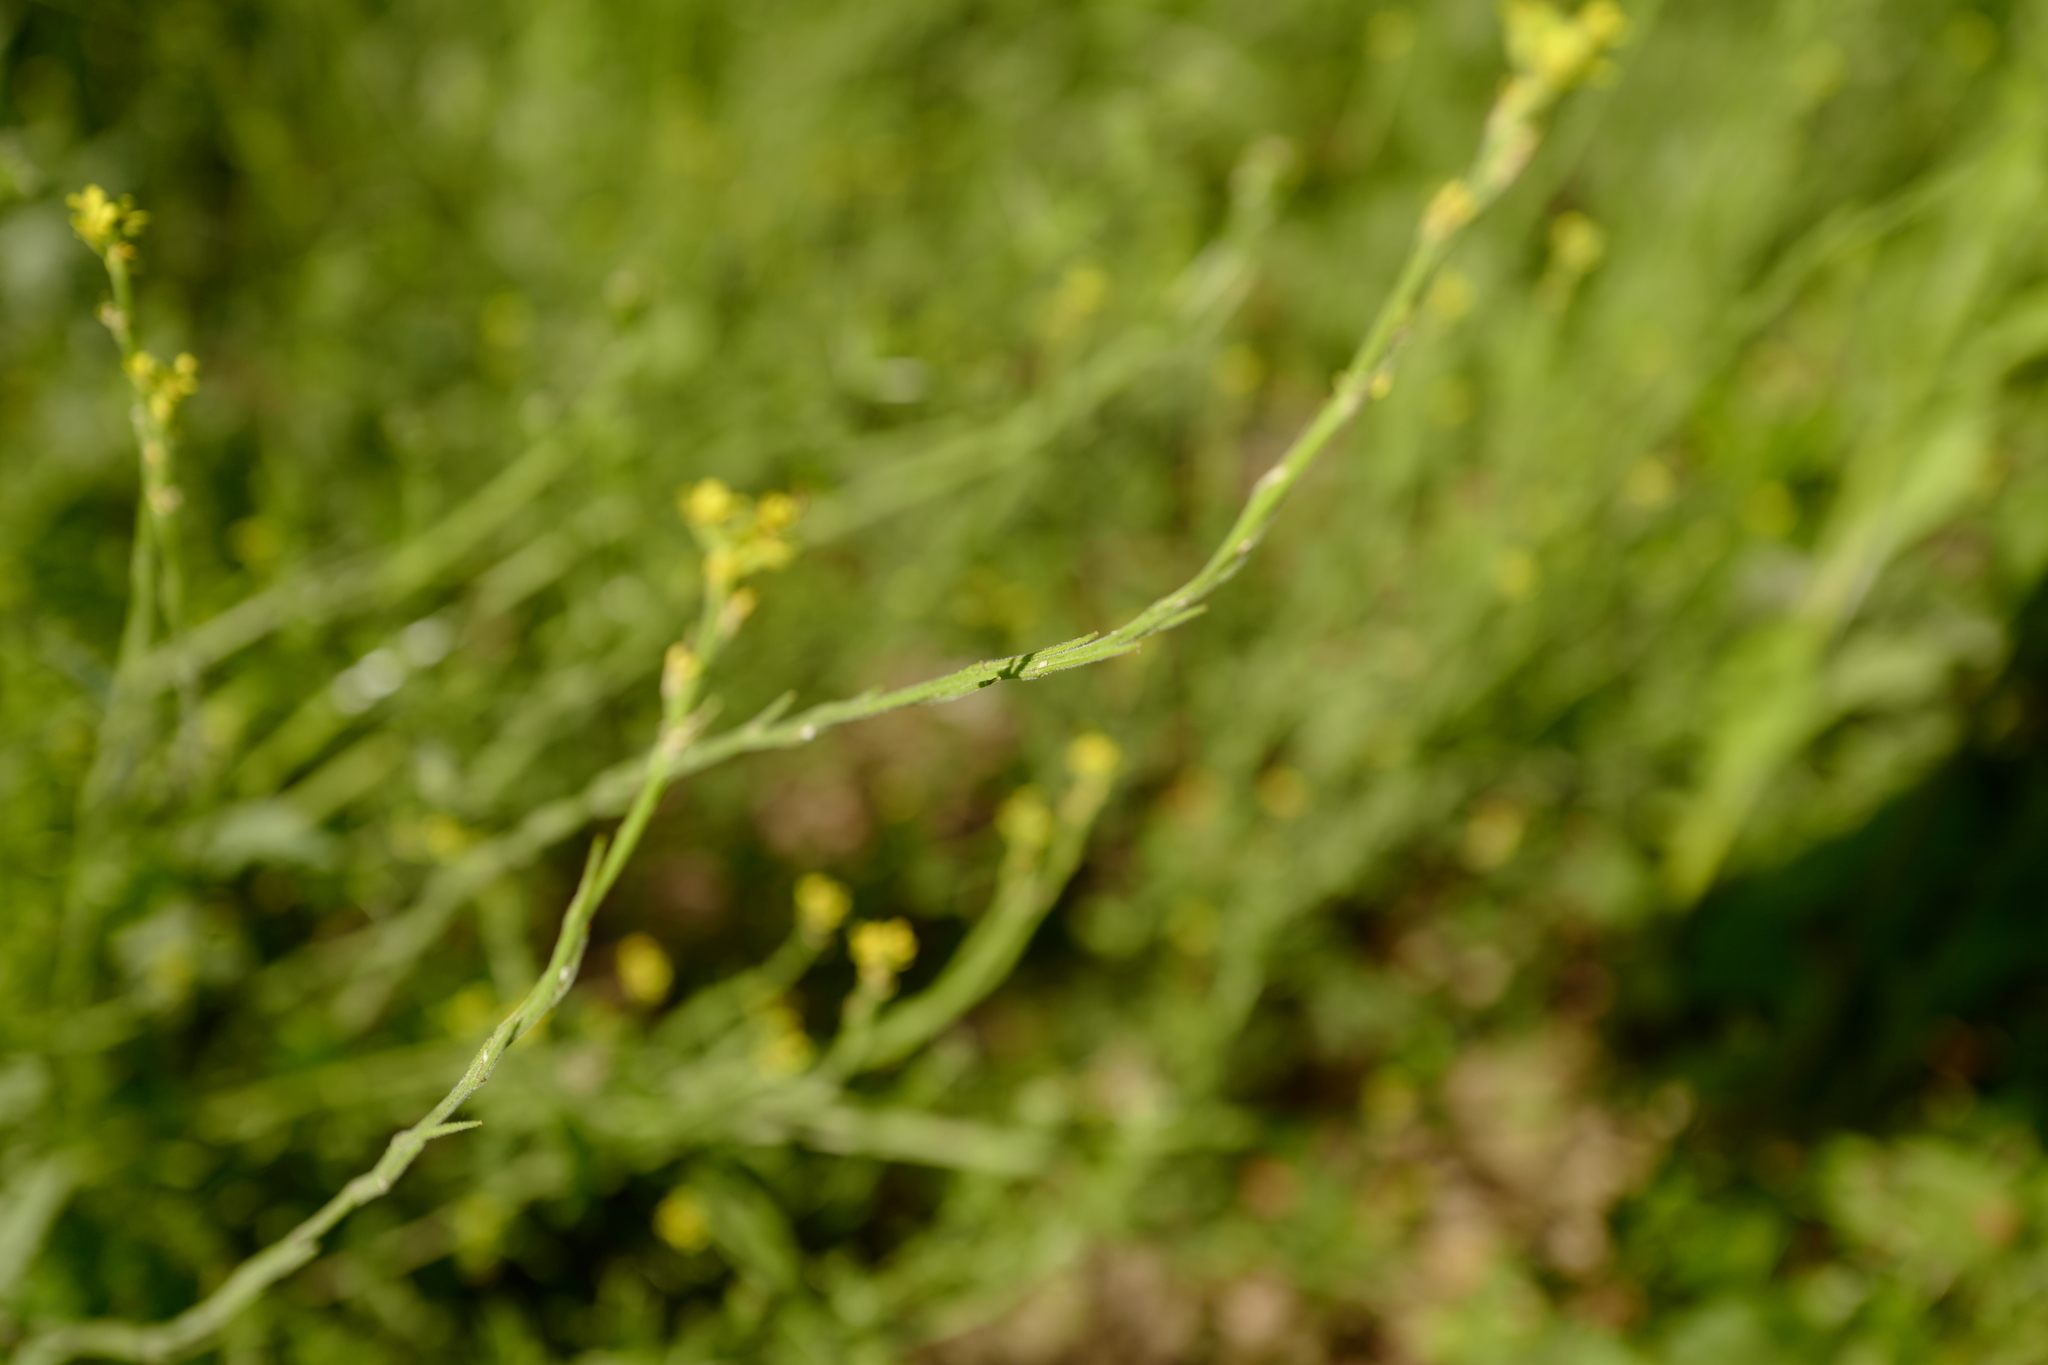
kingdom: Plantae
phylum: Tracheophyta
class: Magnoliopsida
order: Brassicales
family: Brassicaceae
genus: Sisymbrium
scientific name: Sisymbrium officinale
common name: Hedge mustard
